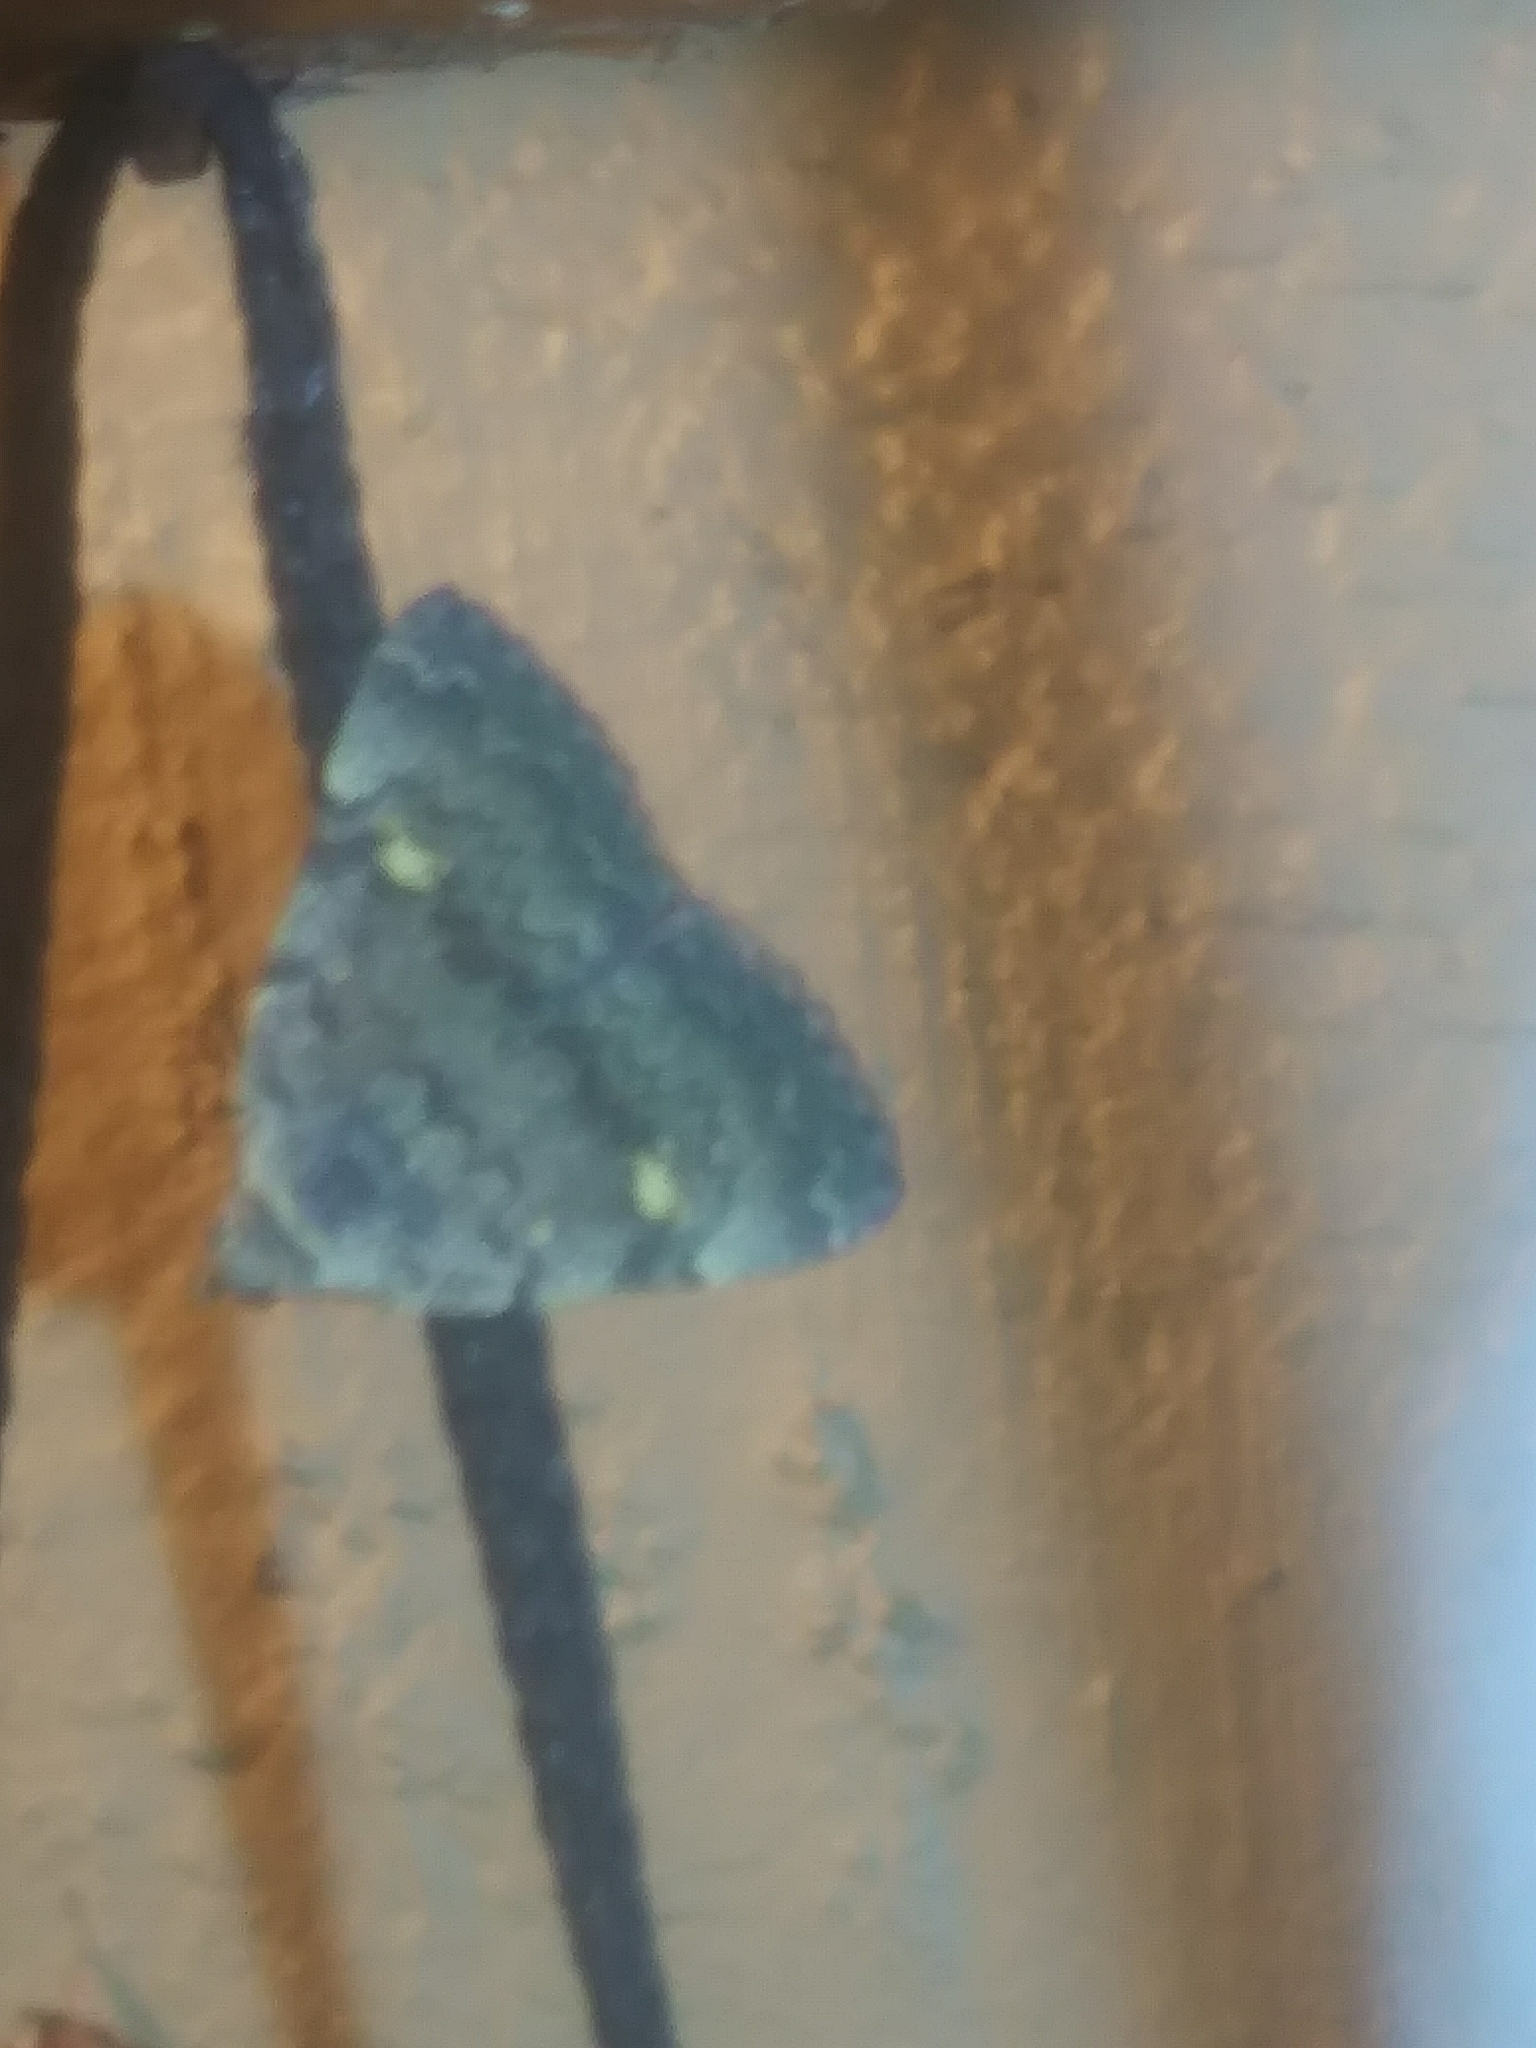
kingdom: Animalia
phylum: Arthropoda
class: Insecta
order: Lepidoptera
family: Erebidae
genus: Idia
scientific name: Idia aemula
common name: Common idia moth
